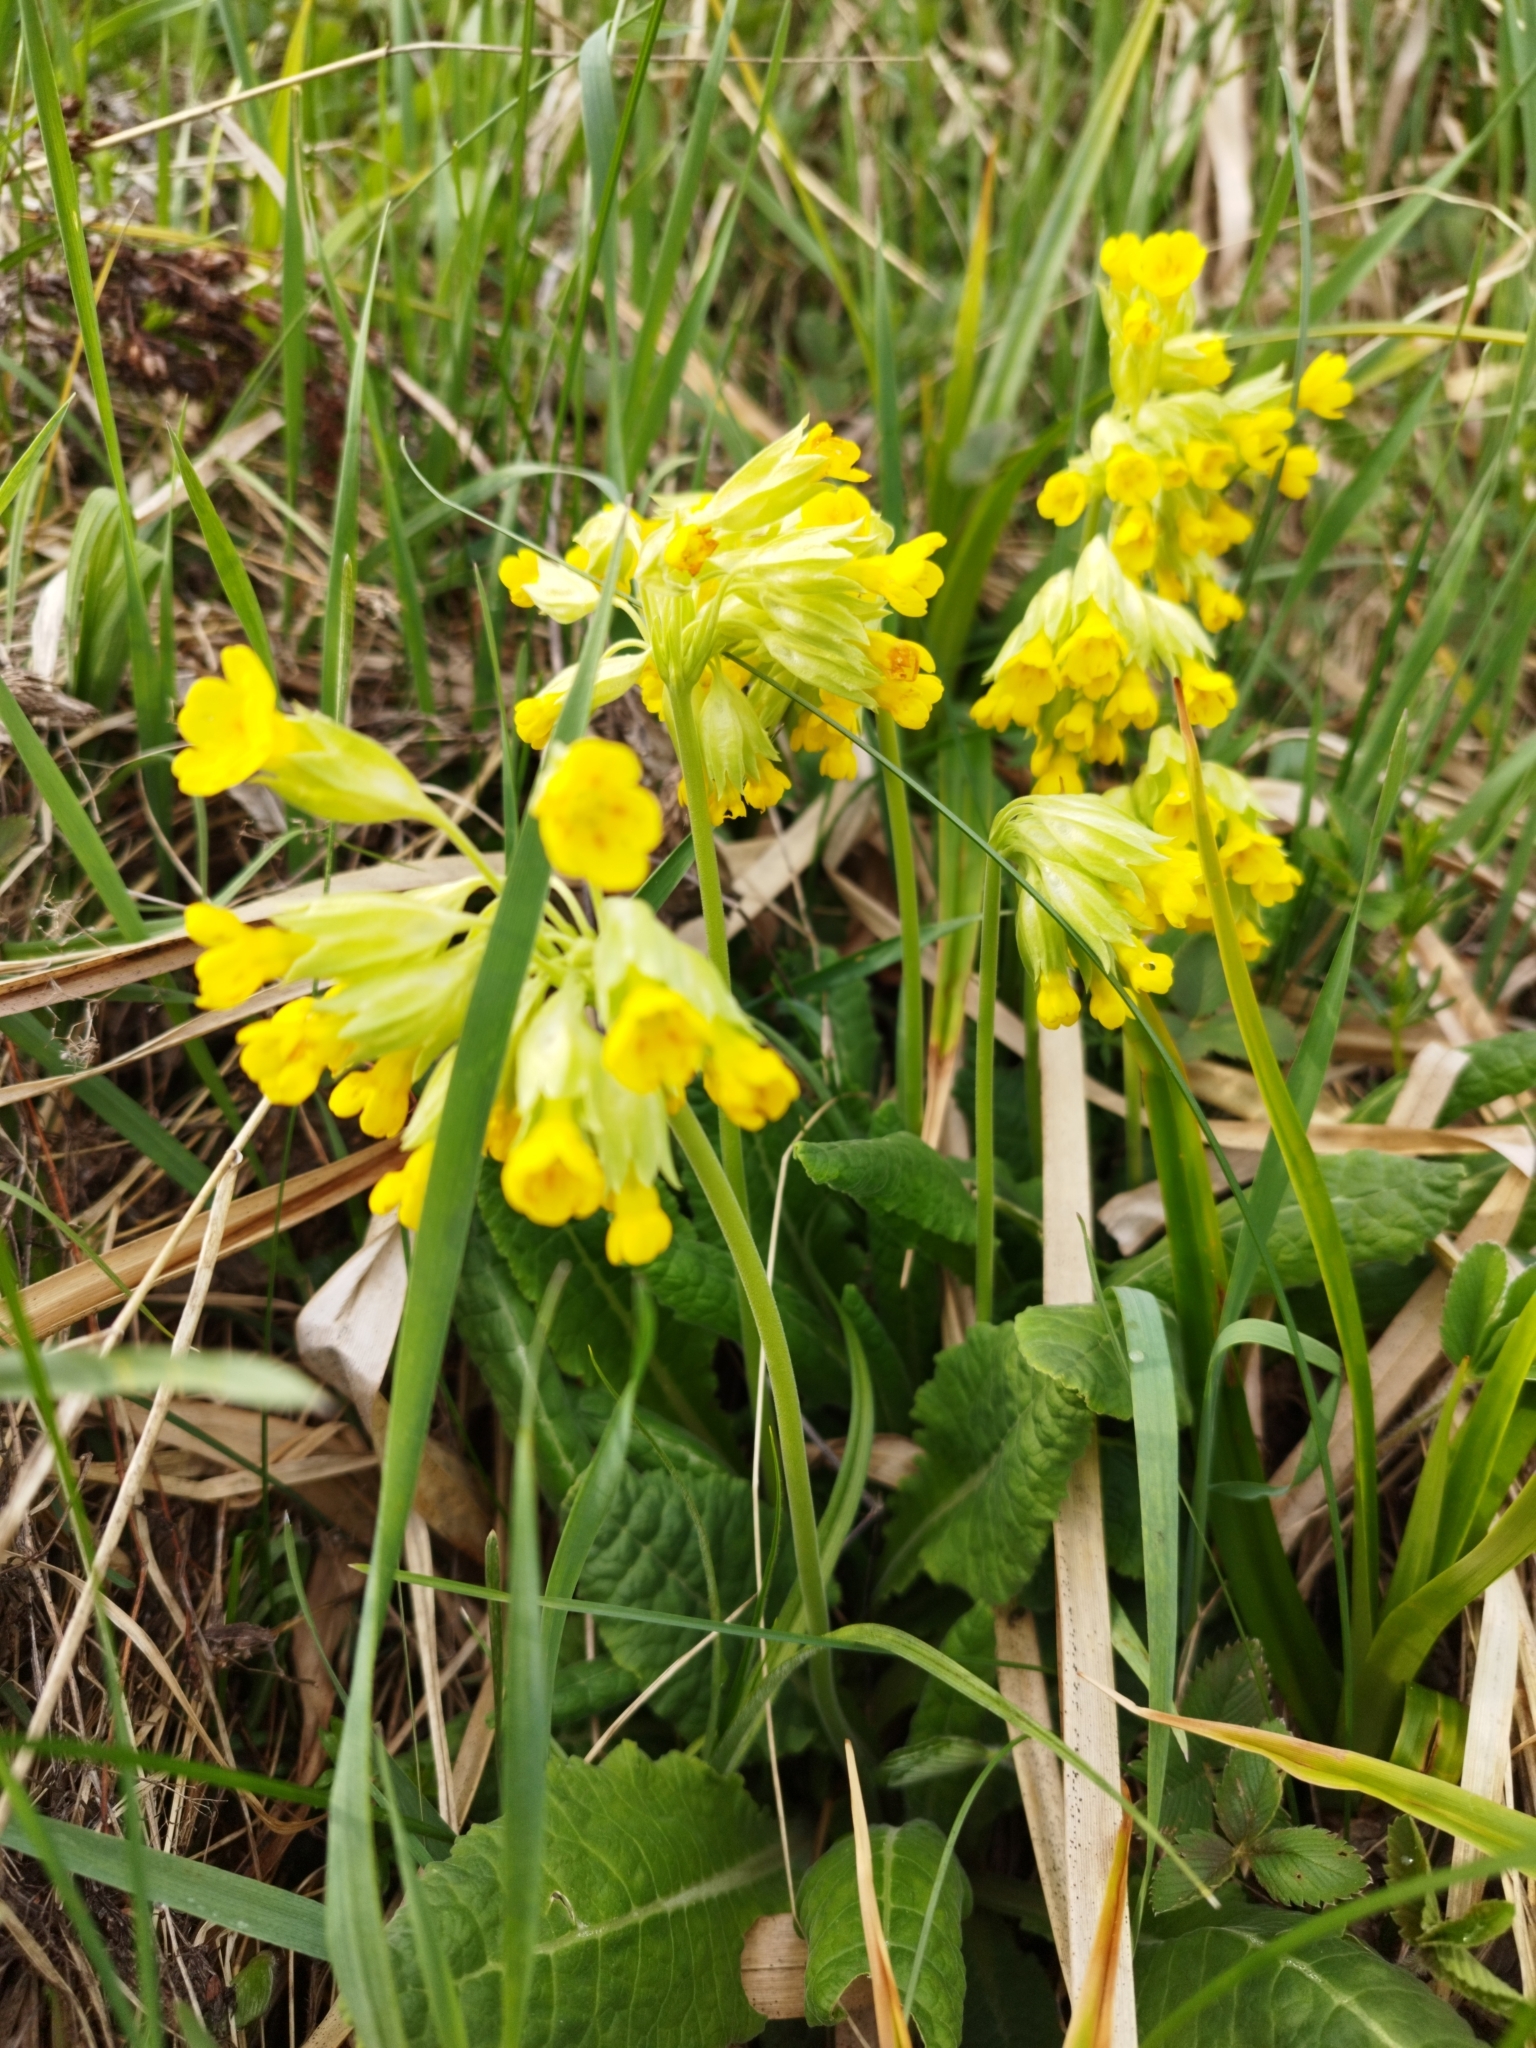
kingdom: Plantae
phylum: Tracheophyta
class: Magnoliopsida
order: Ericales
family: Primulaceae
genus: Primula
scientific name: Primula veris
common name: Cowslip
